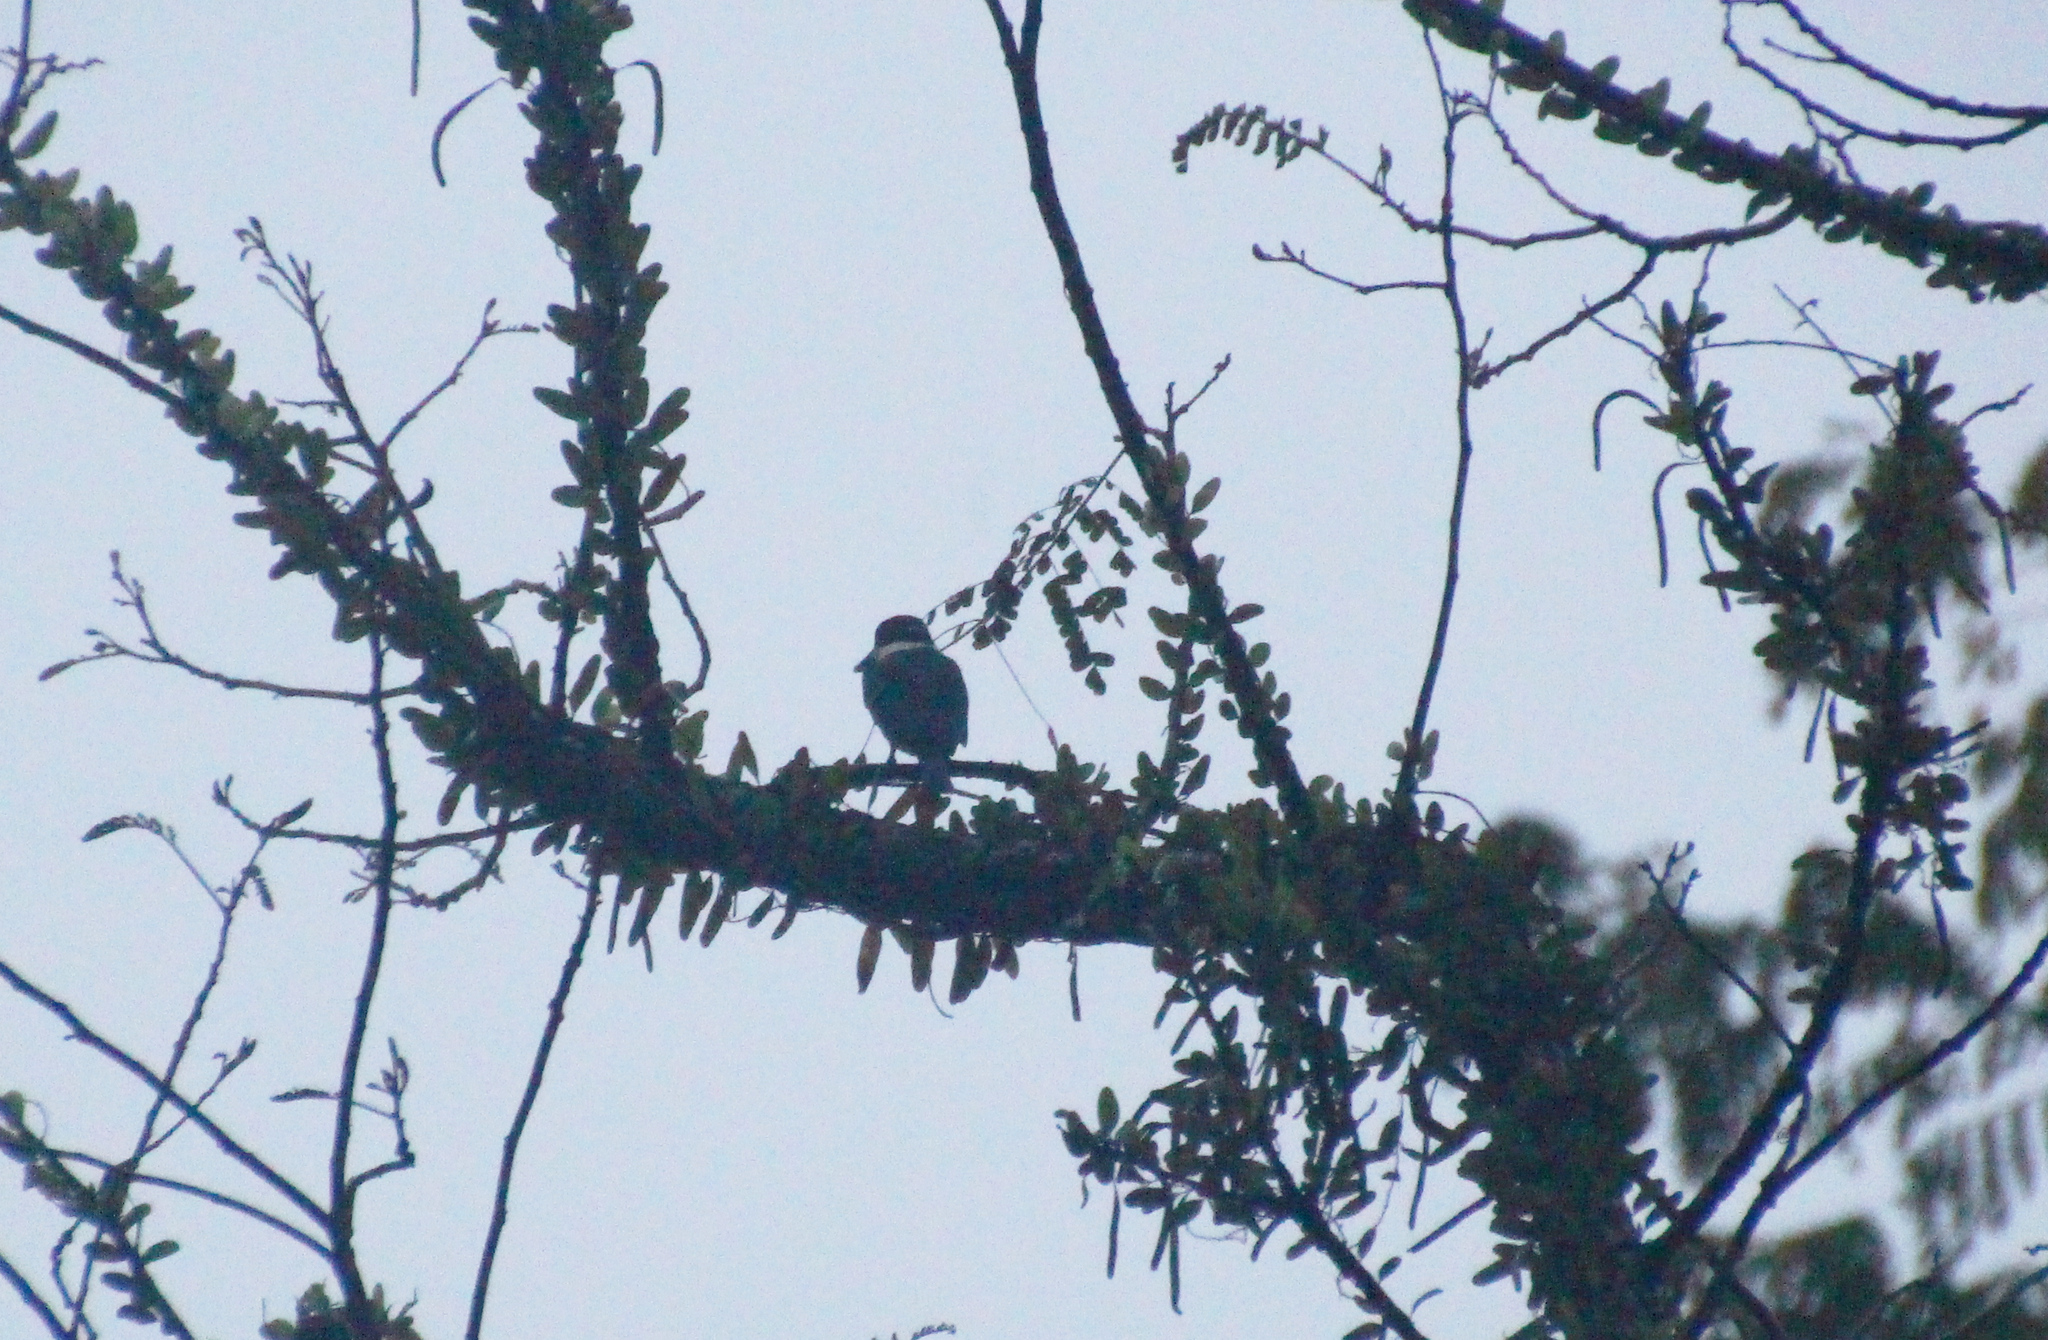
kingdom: Animalia
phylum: Chordata
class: Aves
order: Coraciiformes
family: Alcedinidae
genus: Todiramphus
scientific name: Todiramphus chloris
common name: Collared kingfisher
